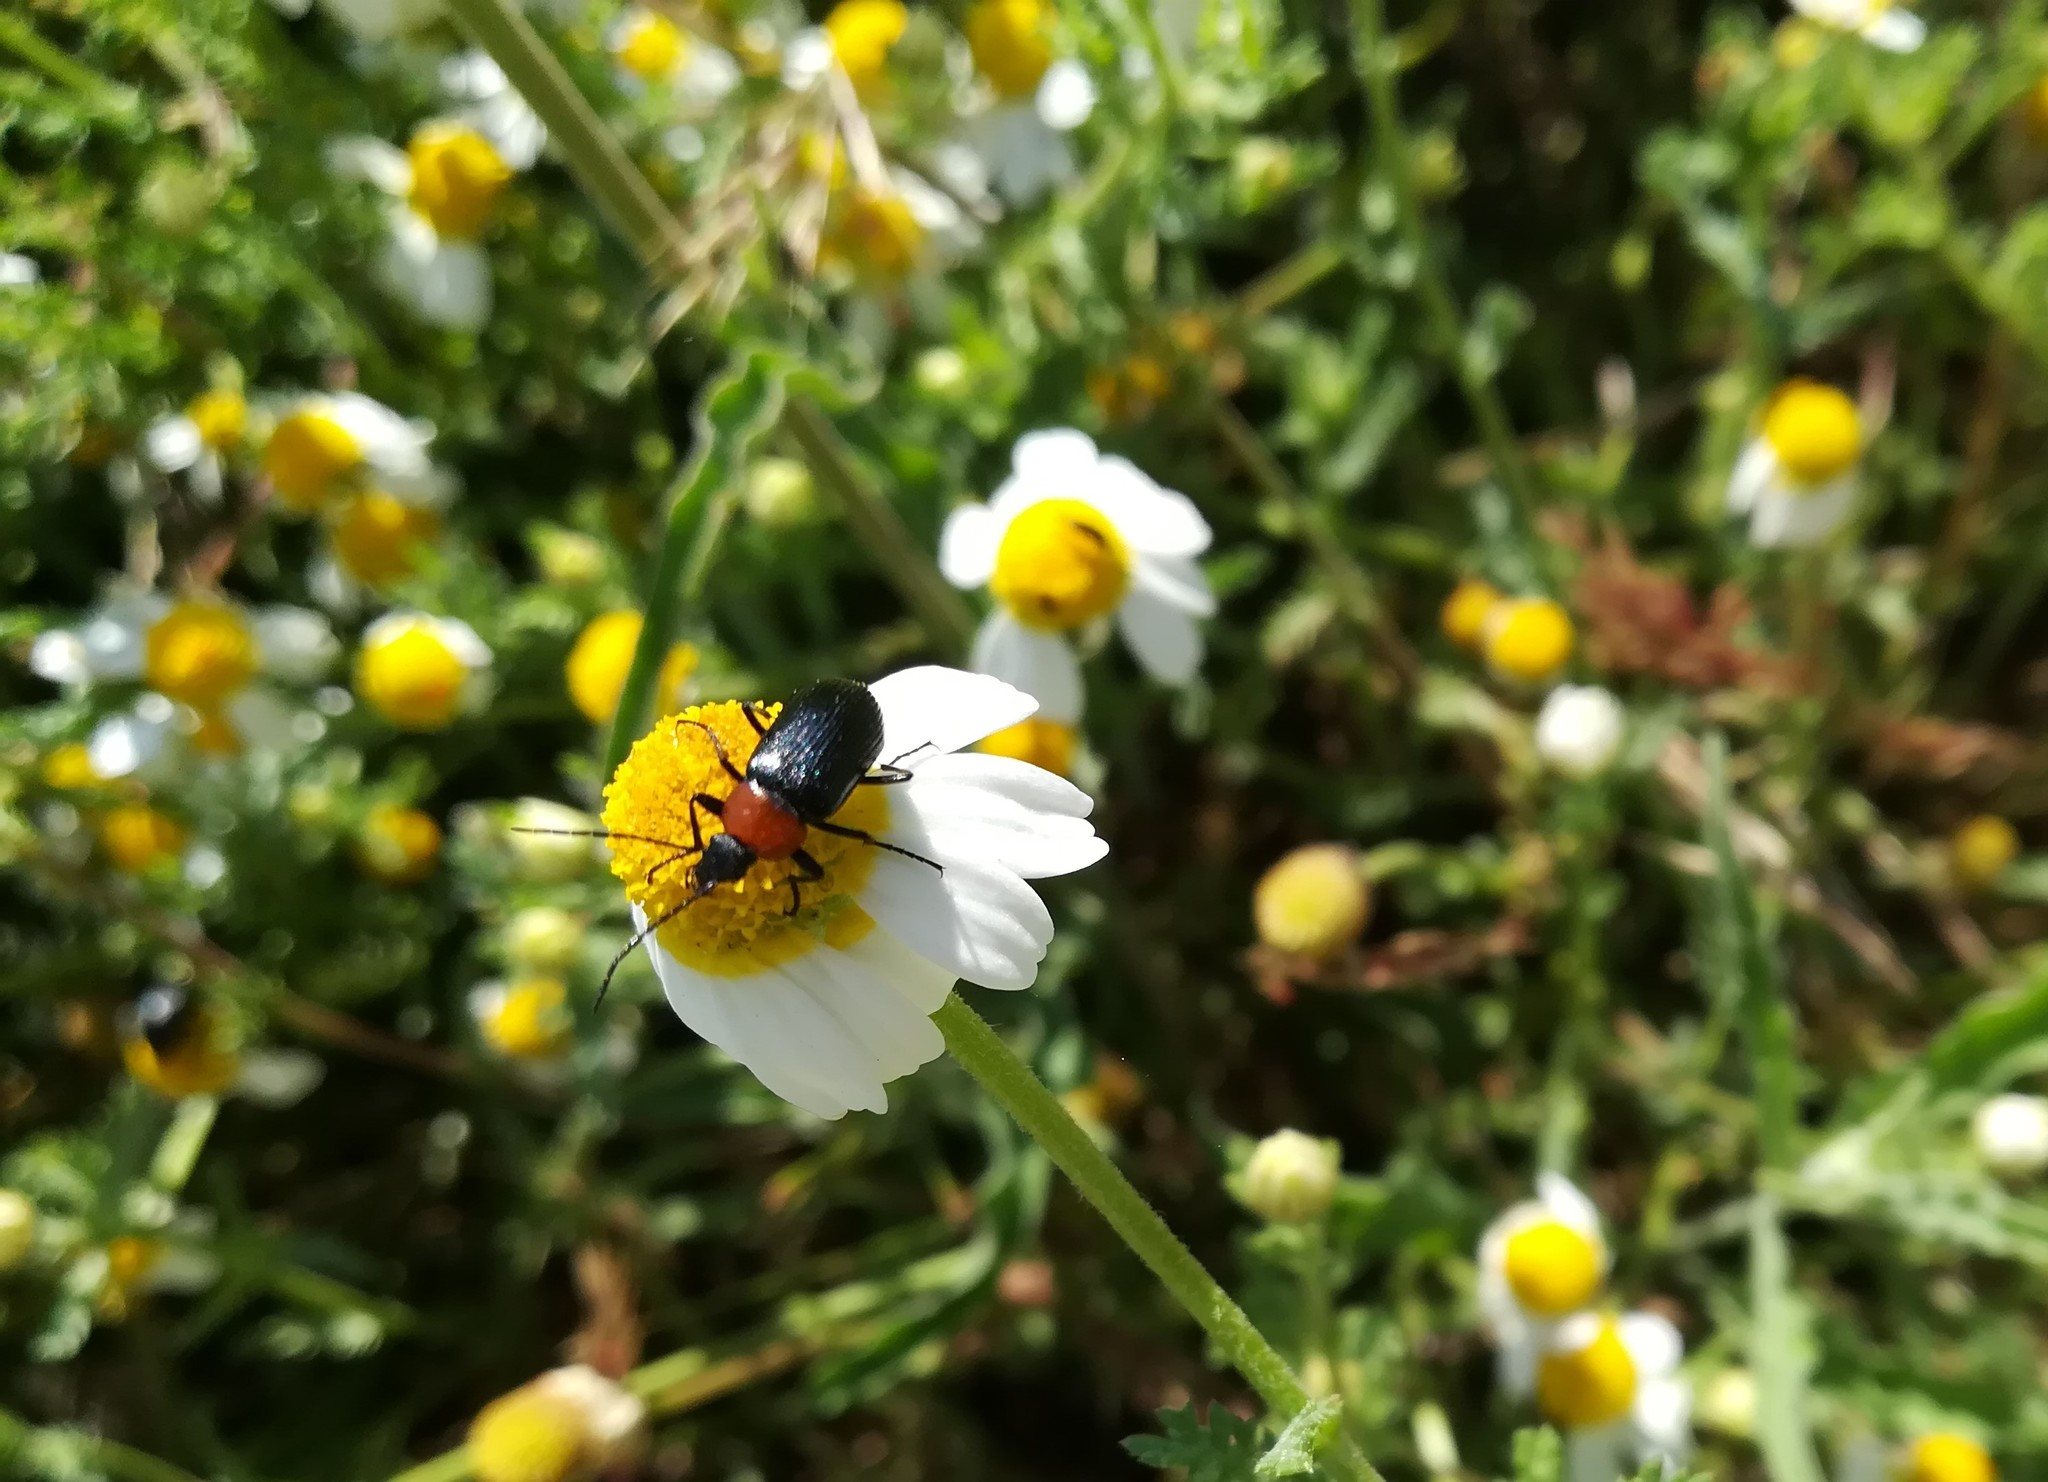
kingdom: Animalia
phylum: Arthropoda
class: Insecta
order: Coleoptera
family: Tenebrionidae
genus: Heliotaurus
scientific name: Heliotaurus ruficollis
